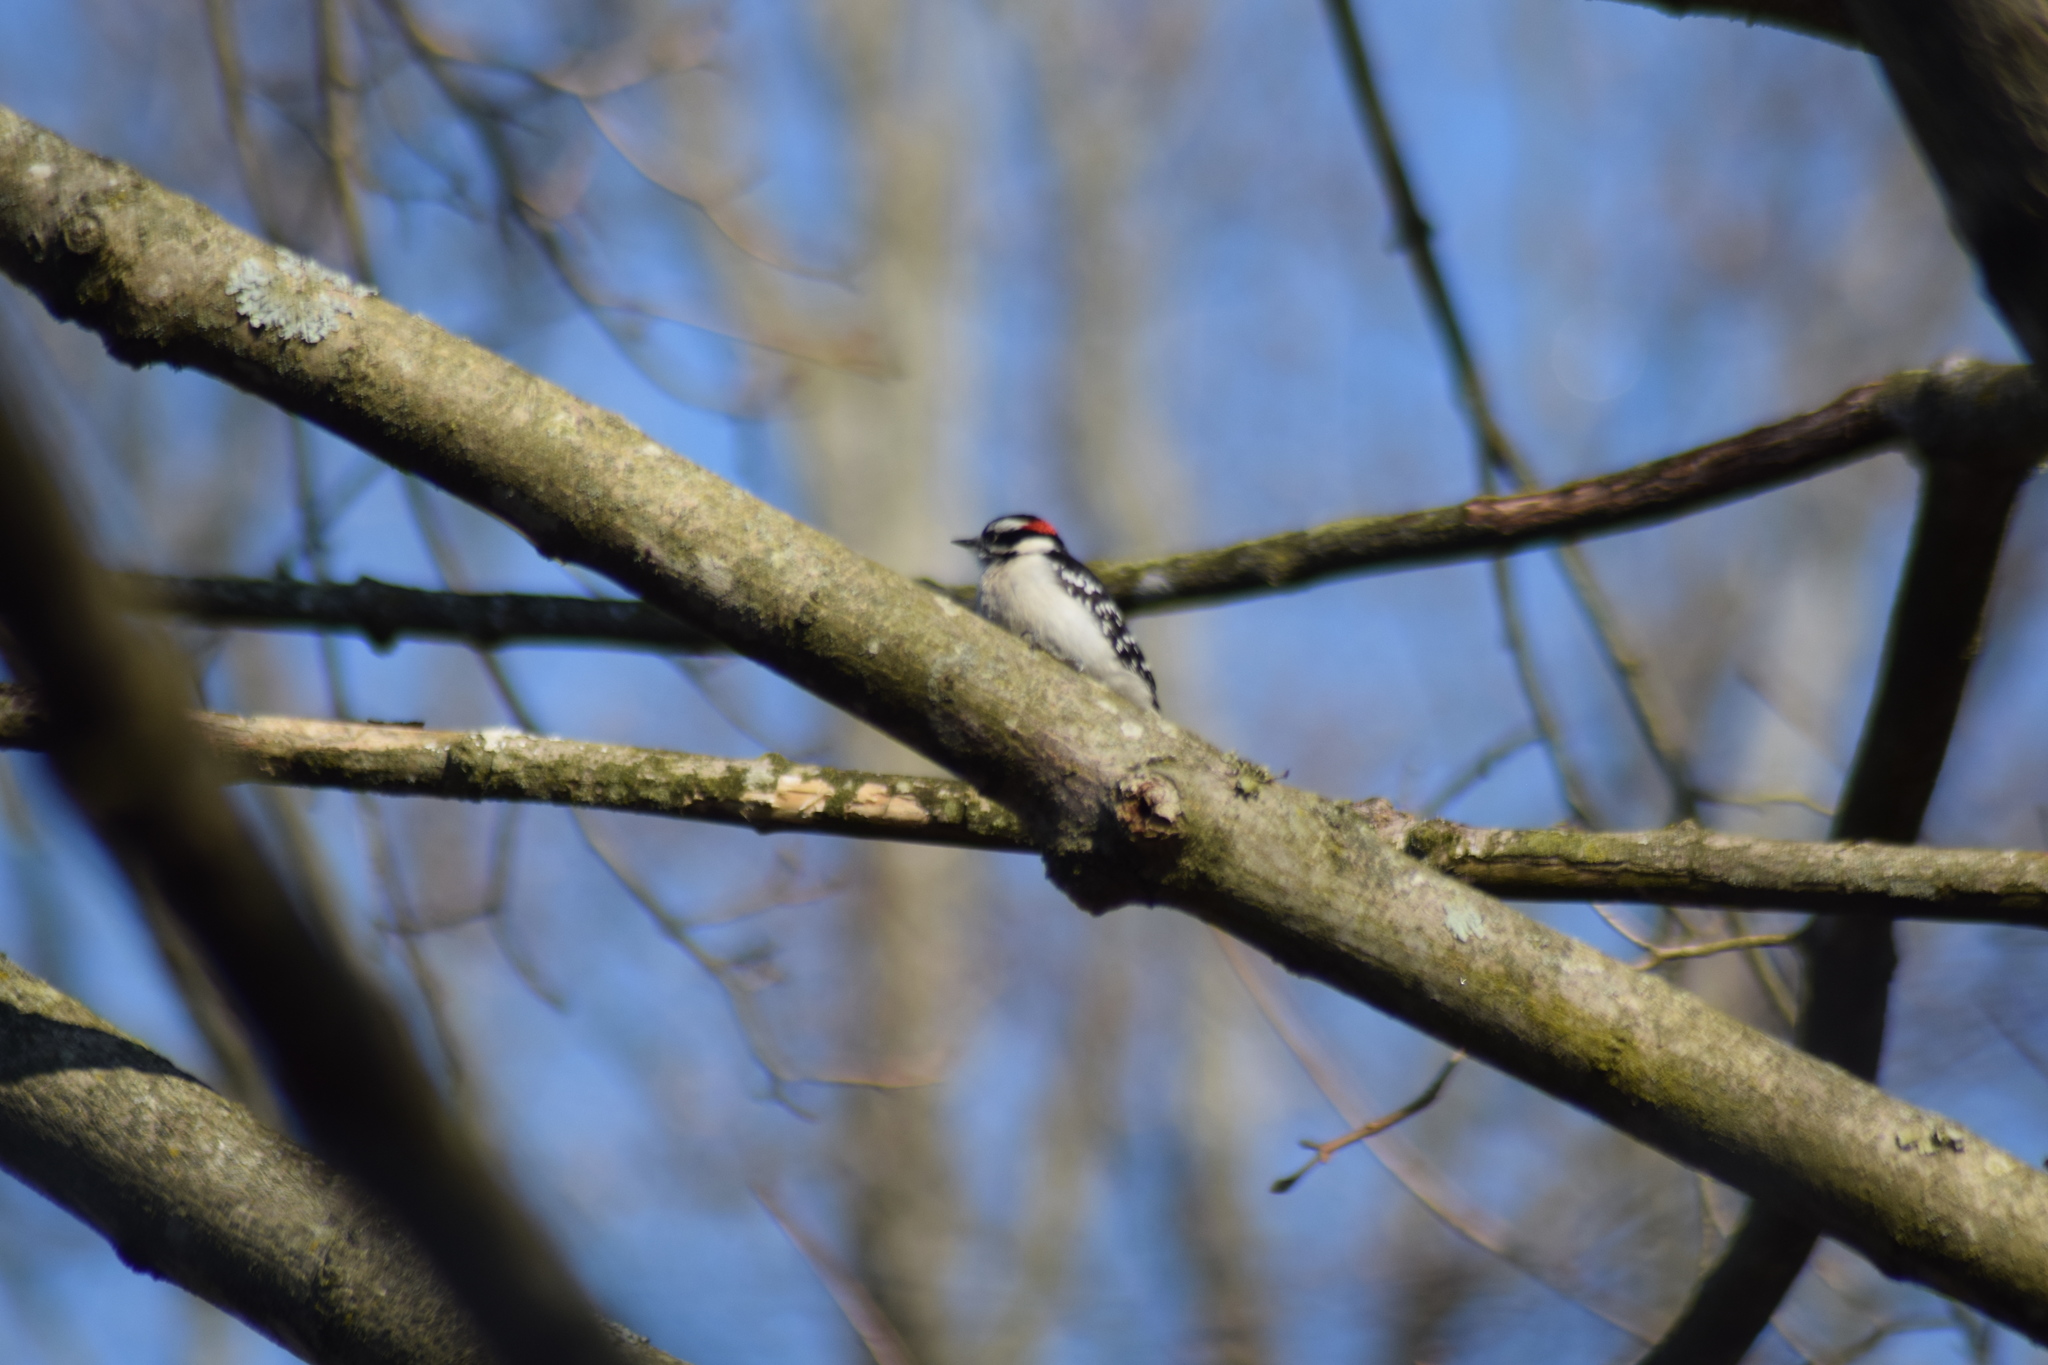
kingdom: Animalia
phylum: Chordata
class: Aves
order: Piciformes
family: Picidae
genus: Dryobates
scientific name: Dryobates pubescens
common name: Downy woodpecker
